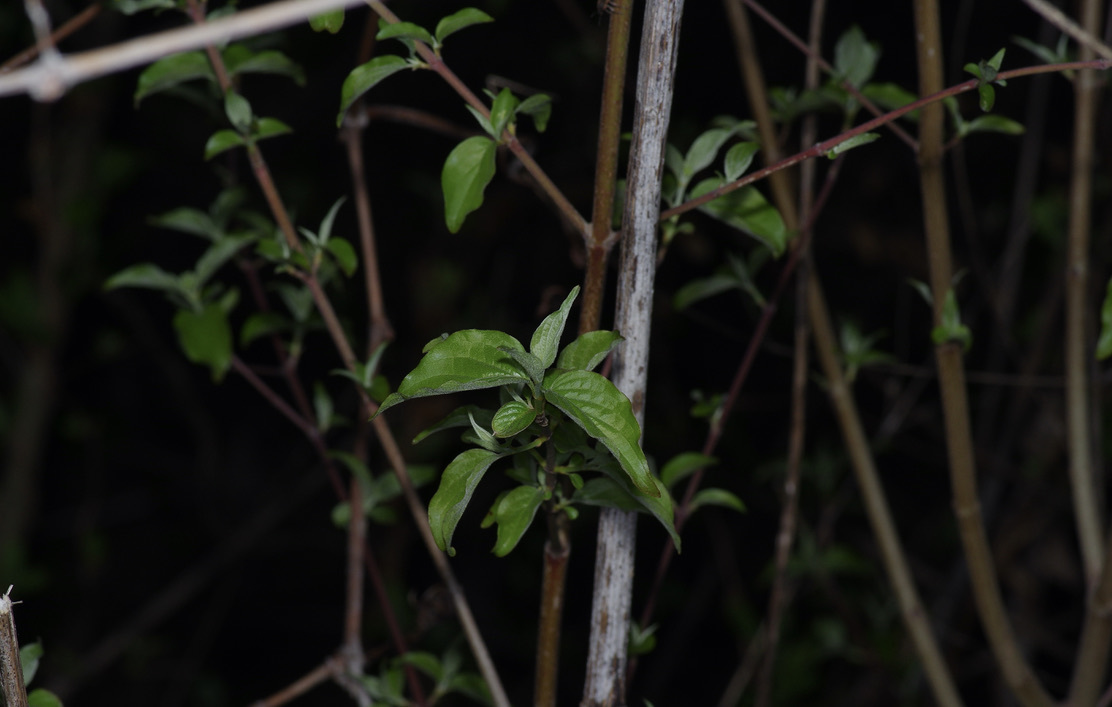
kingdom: Plantae
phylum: Tracheophyta
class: Magnoliopsida
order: Cornales
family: Cornaceae
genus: Cornus
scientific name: Cornus drummondii
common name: Rough-leaf dogwood
